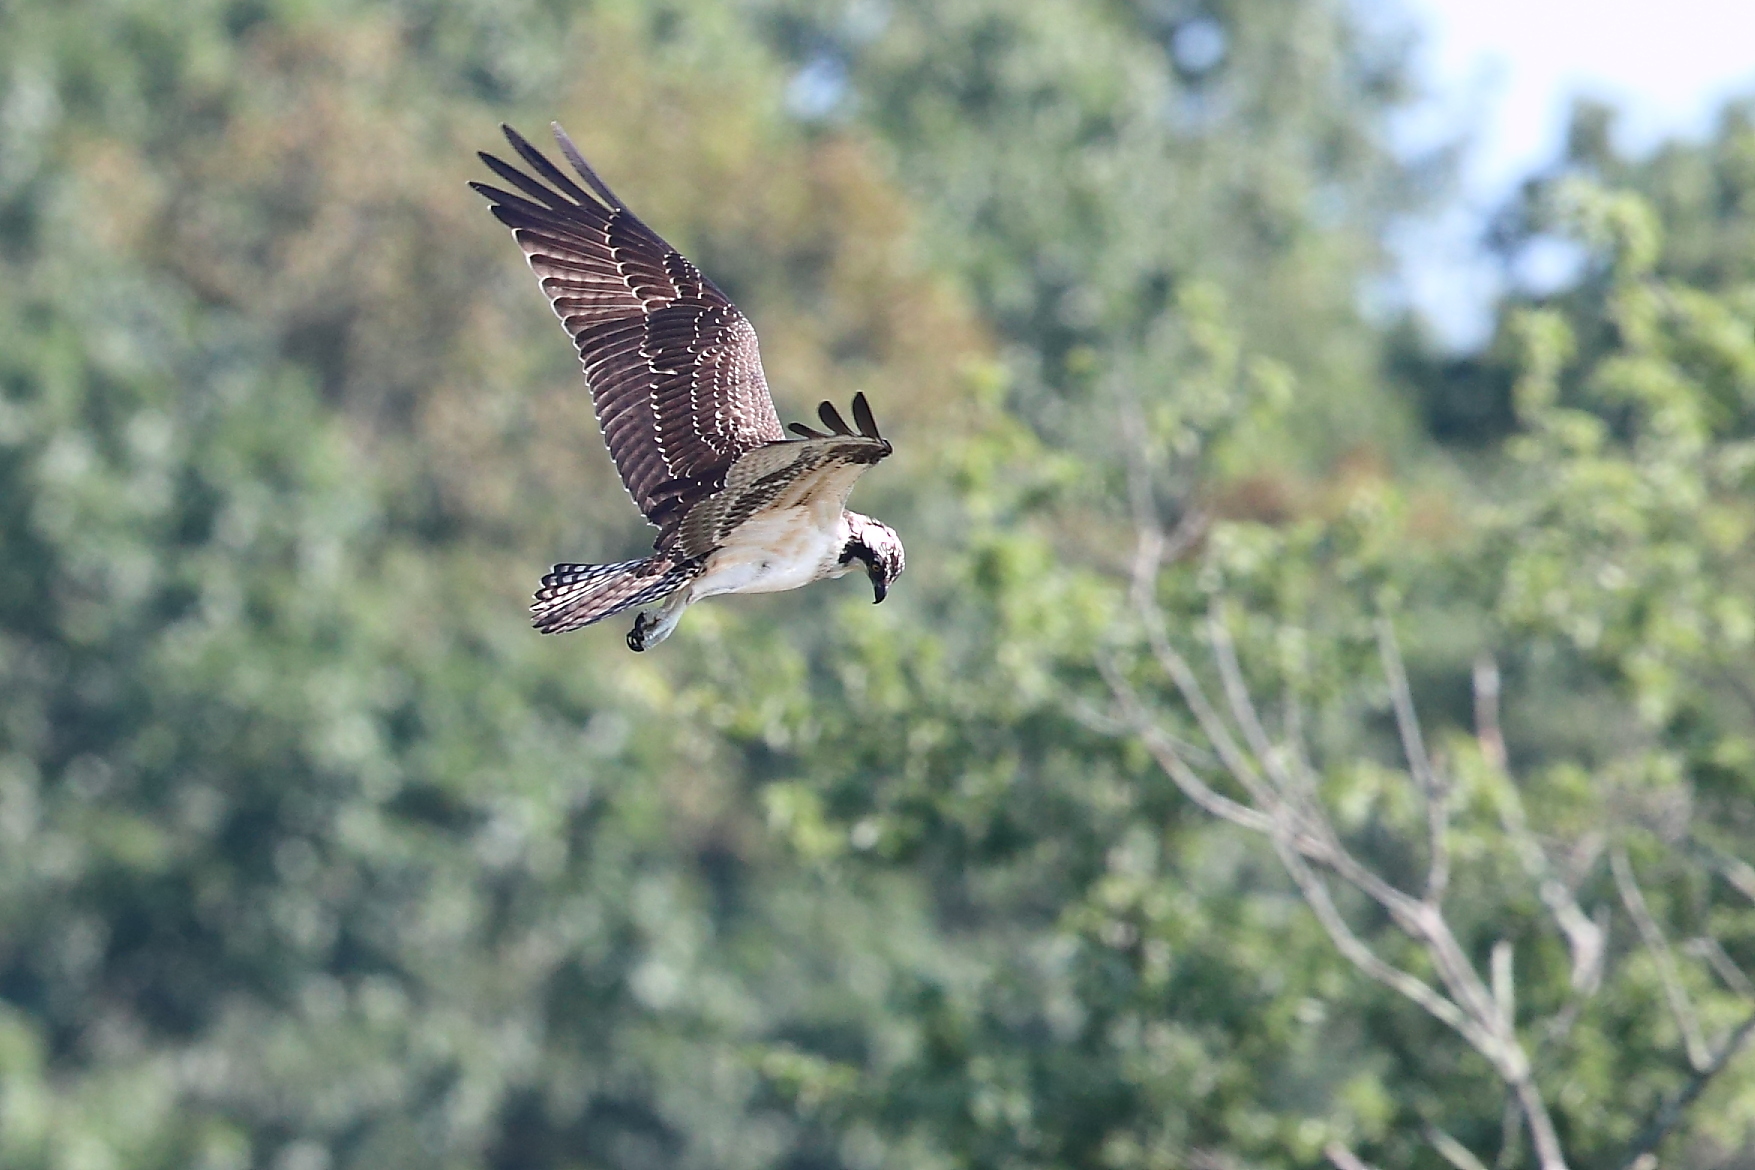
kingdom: Animalia
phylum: Chordata
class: Aves
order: Accipitriformes
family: Pandionidae
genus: Pandion
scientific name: Pandion haliaetus
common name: Osprey
